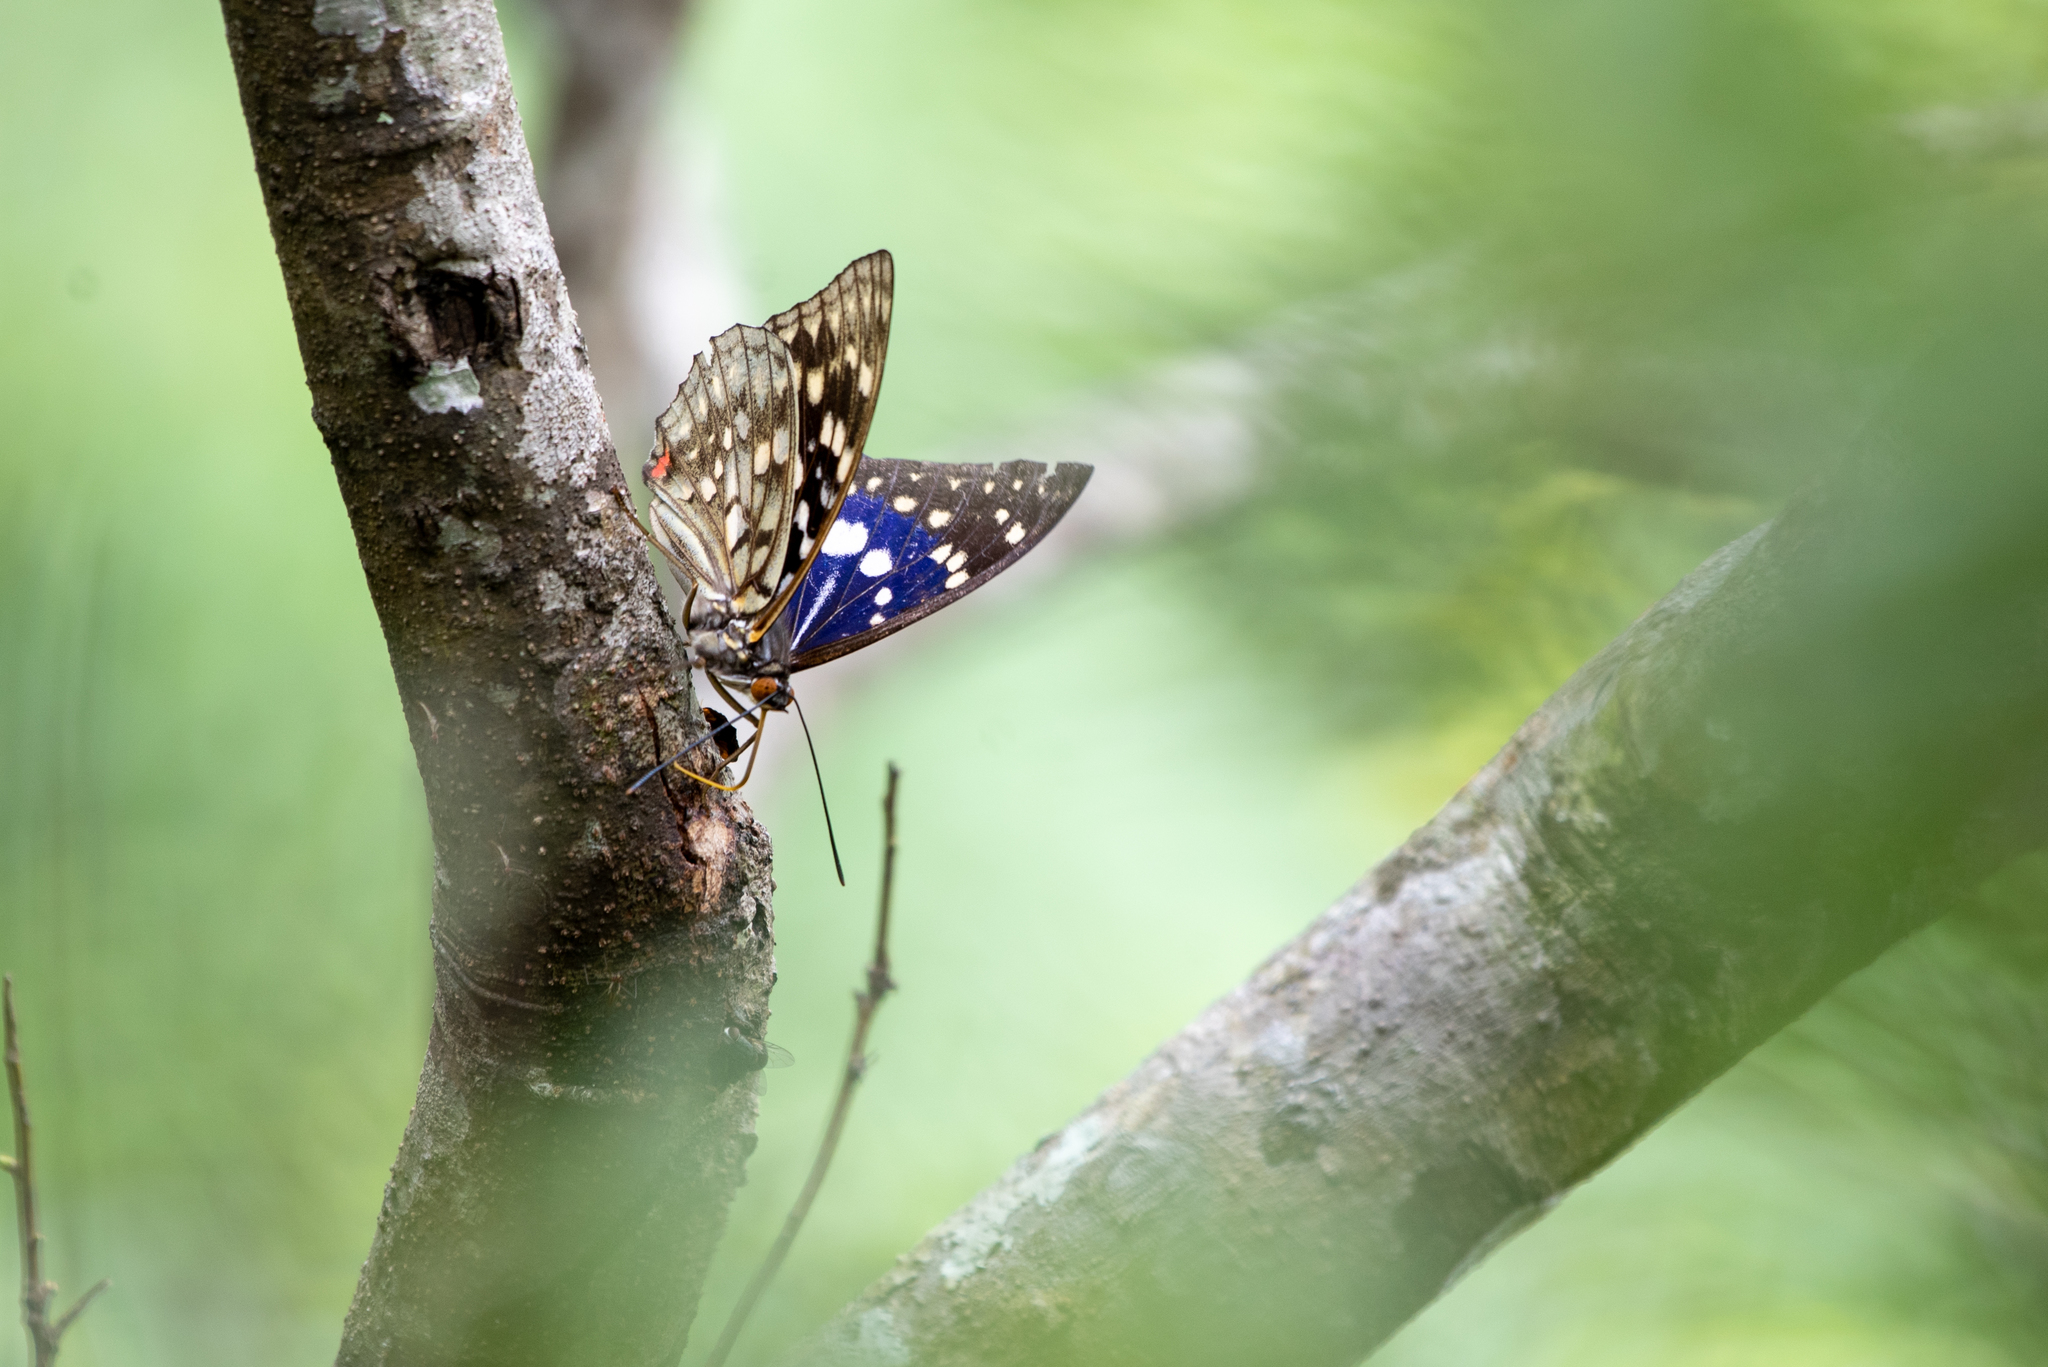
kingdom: Animalia
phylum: Arthropoda
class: Insecta
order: Lepidoptera
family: Nymphalidae
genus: Sasakia
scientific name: Sasakia charonda
